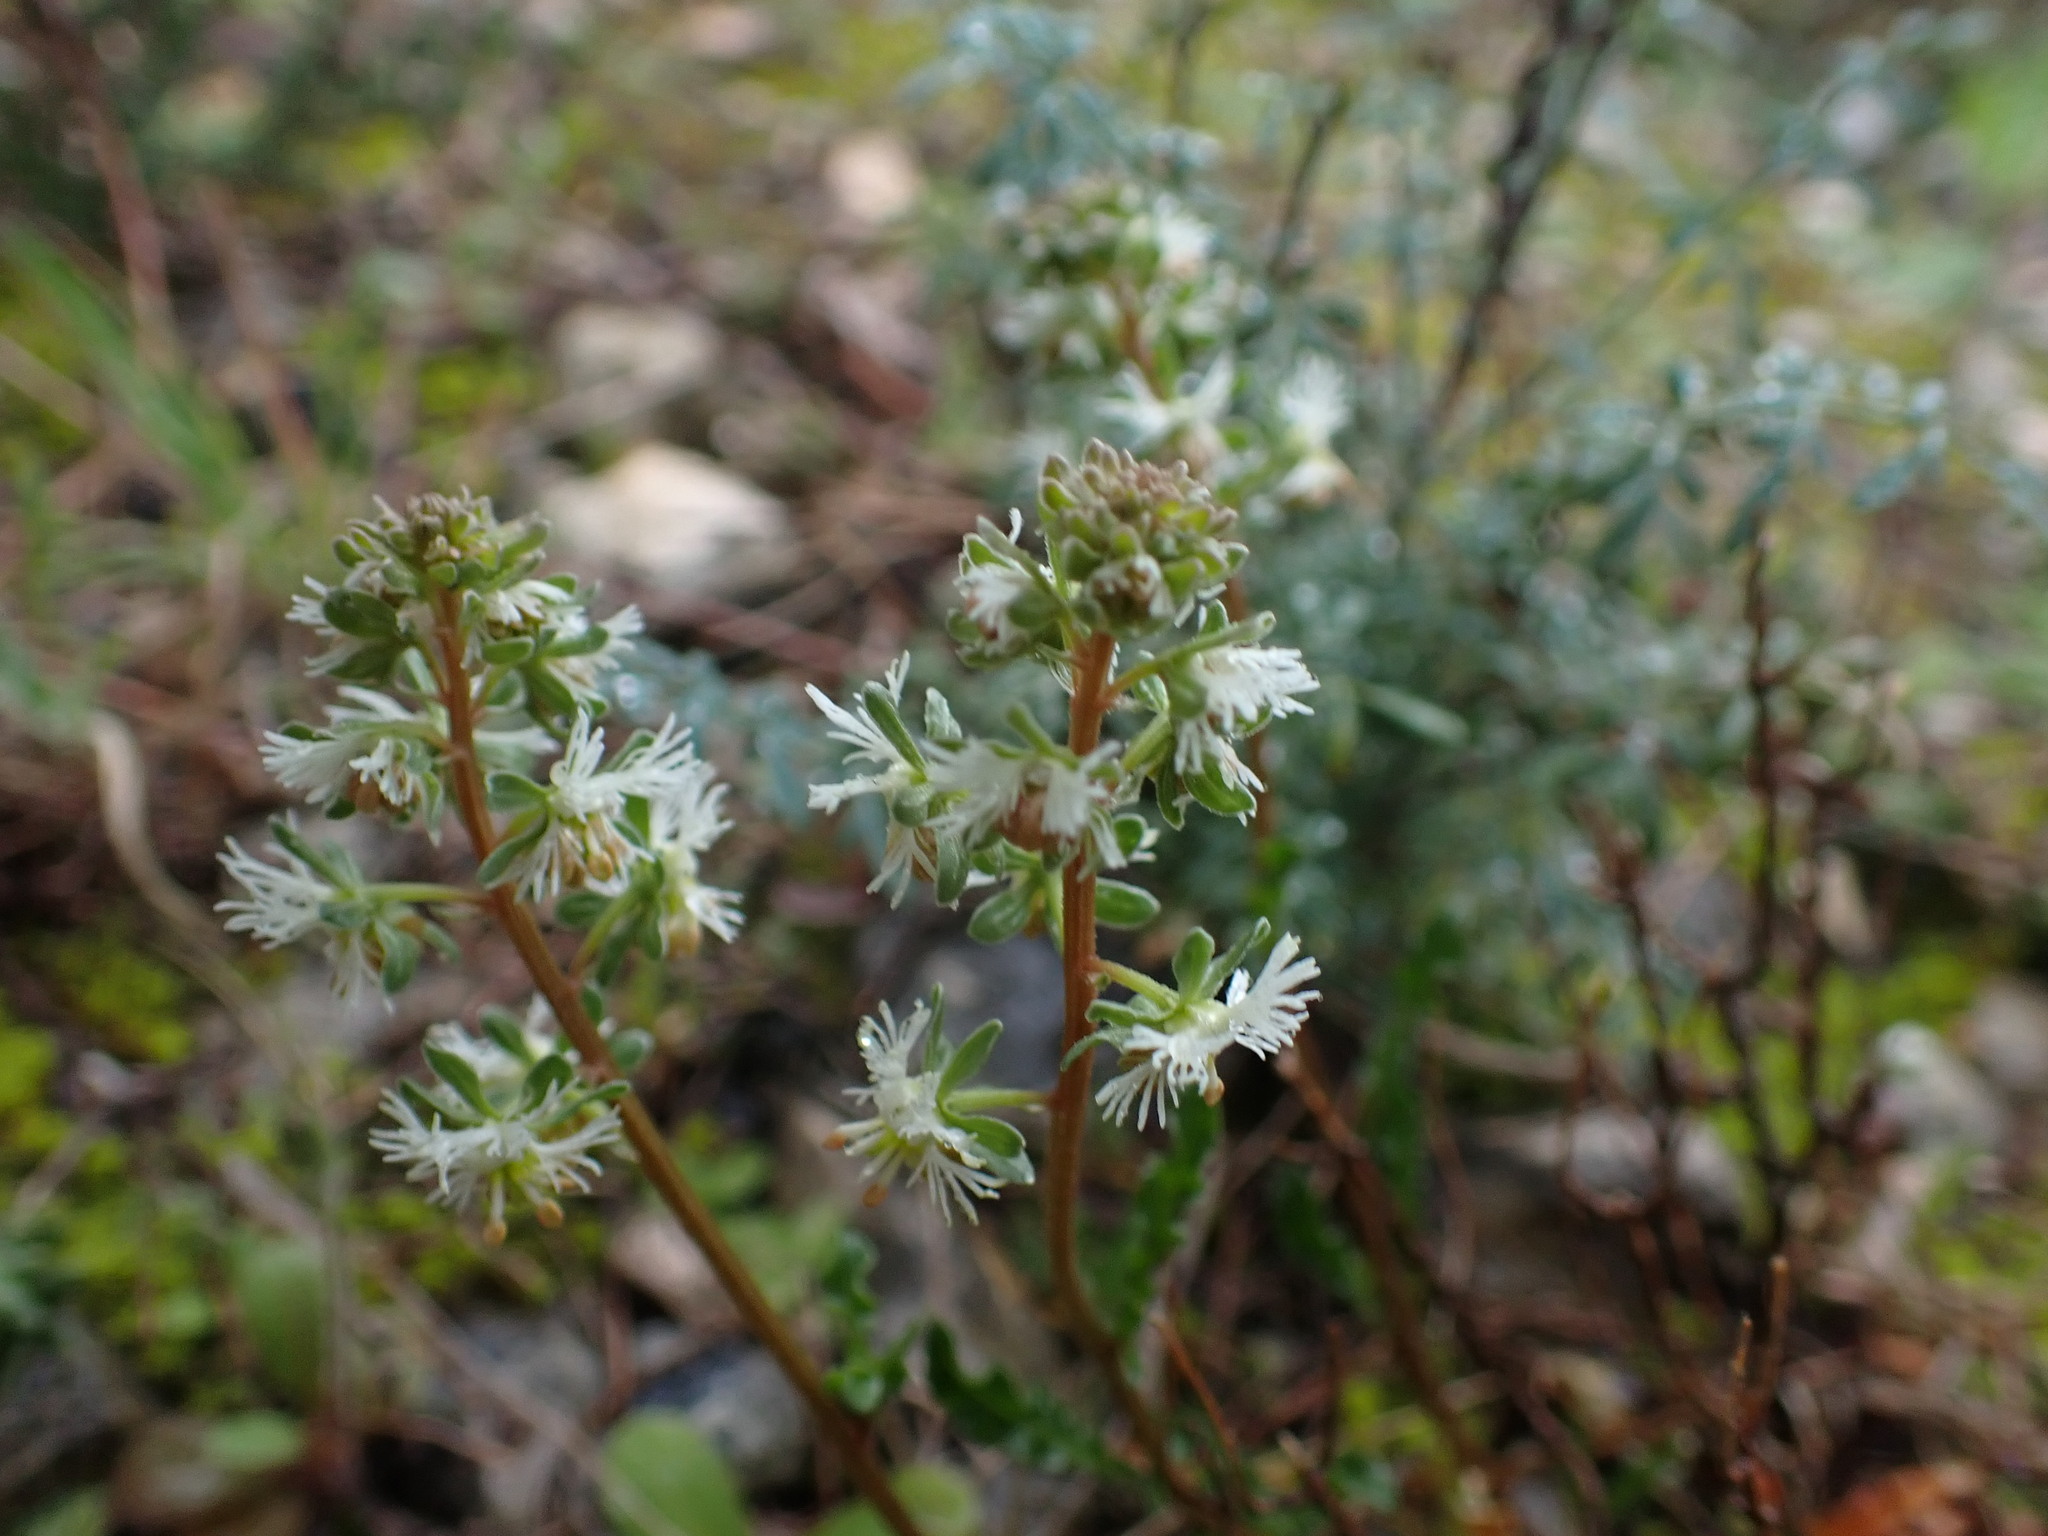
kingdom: Plantae
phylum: Tracheophyta
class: Magnoliopsida
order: Brassicales
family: Resedaceae
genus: Reseda
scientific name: Reseda phyteuma
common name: Corn mignonette
